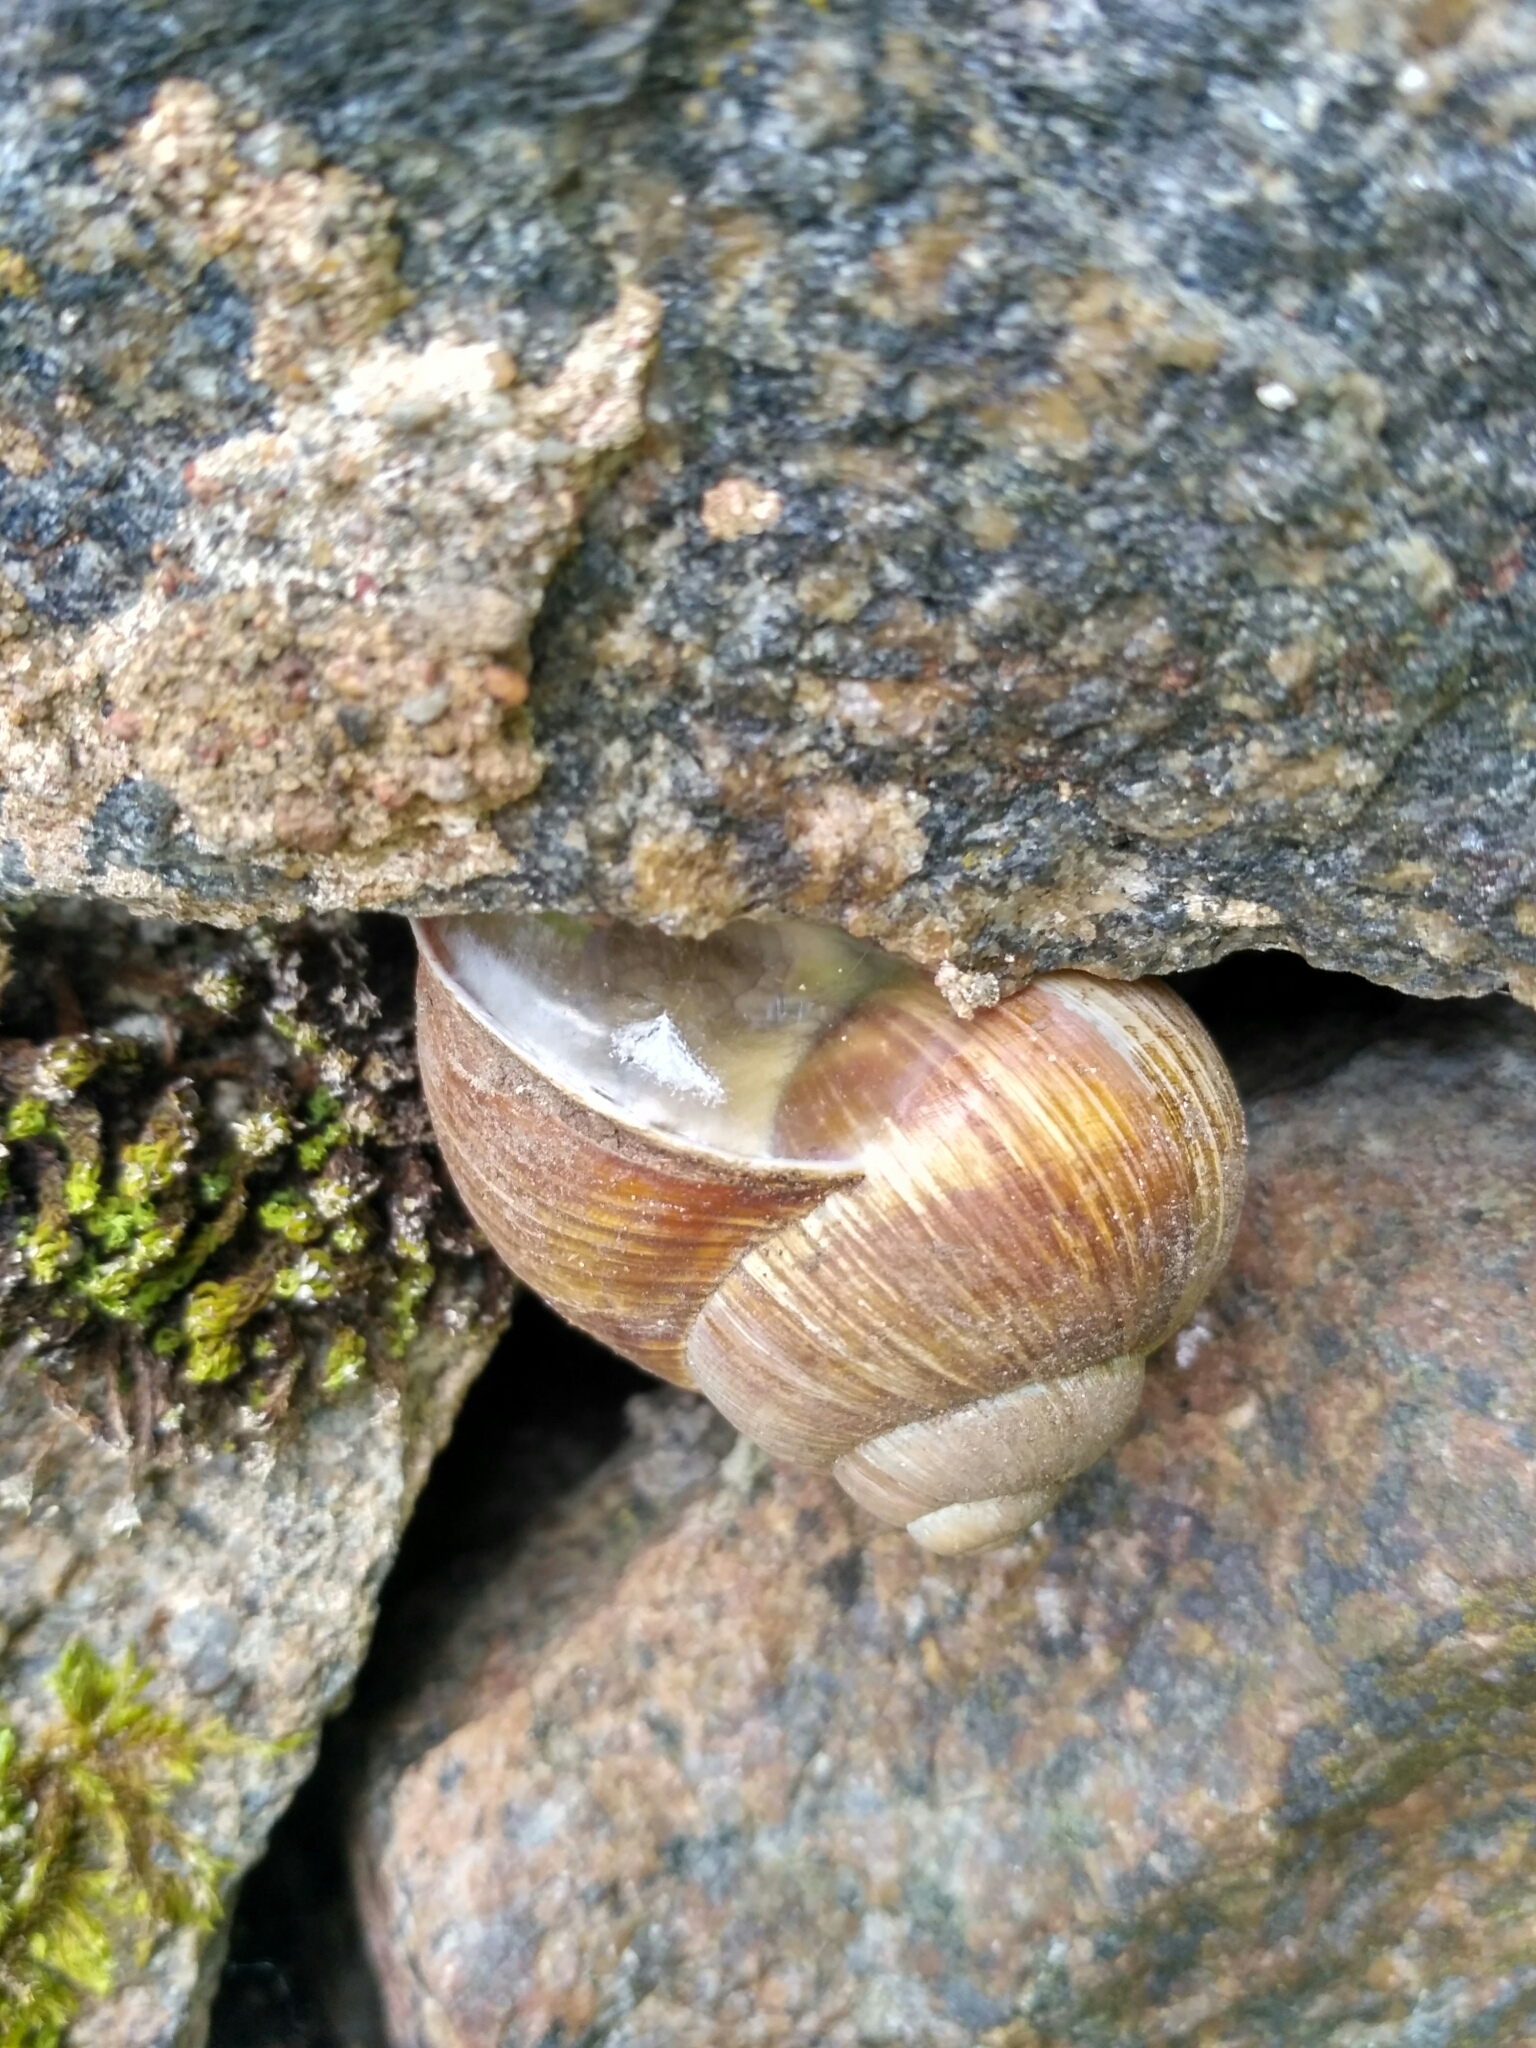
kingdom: Animalia
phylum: Mollusca
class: Gastropoda
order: Stylommatophora
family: Helicidae
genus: Helix
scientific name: Helix pomatia
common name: Roman snail
